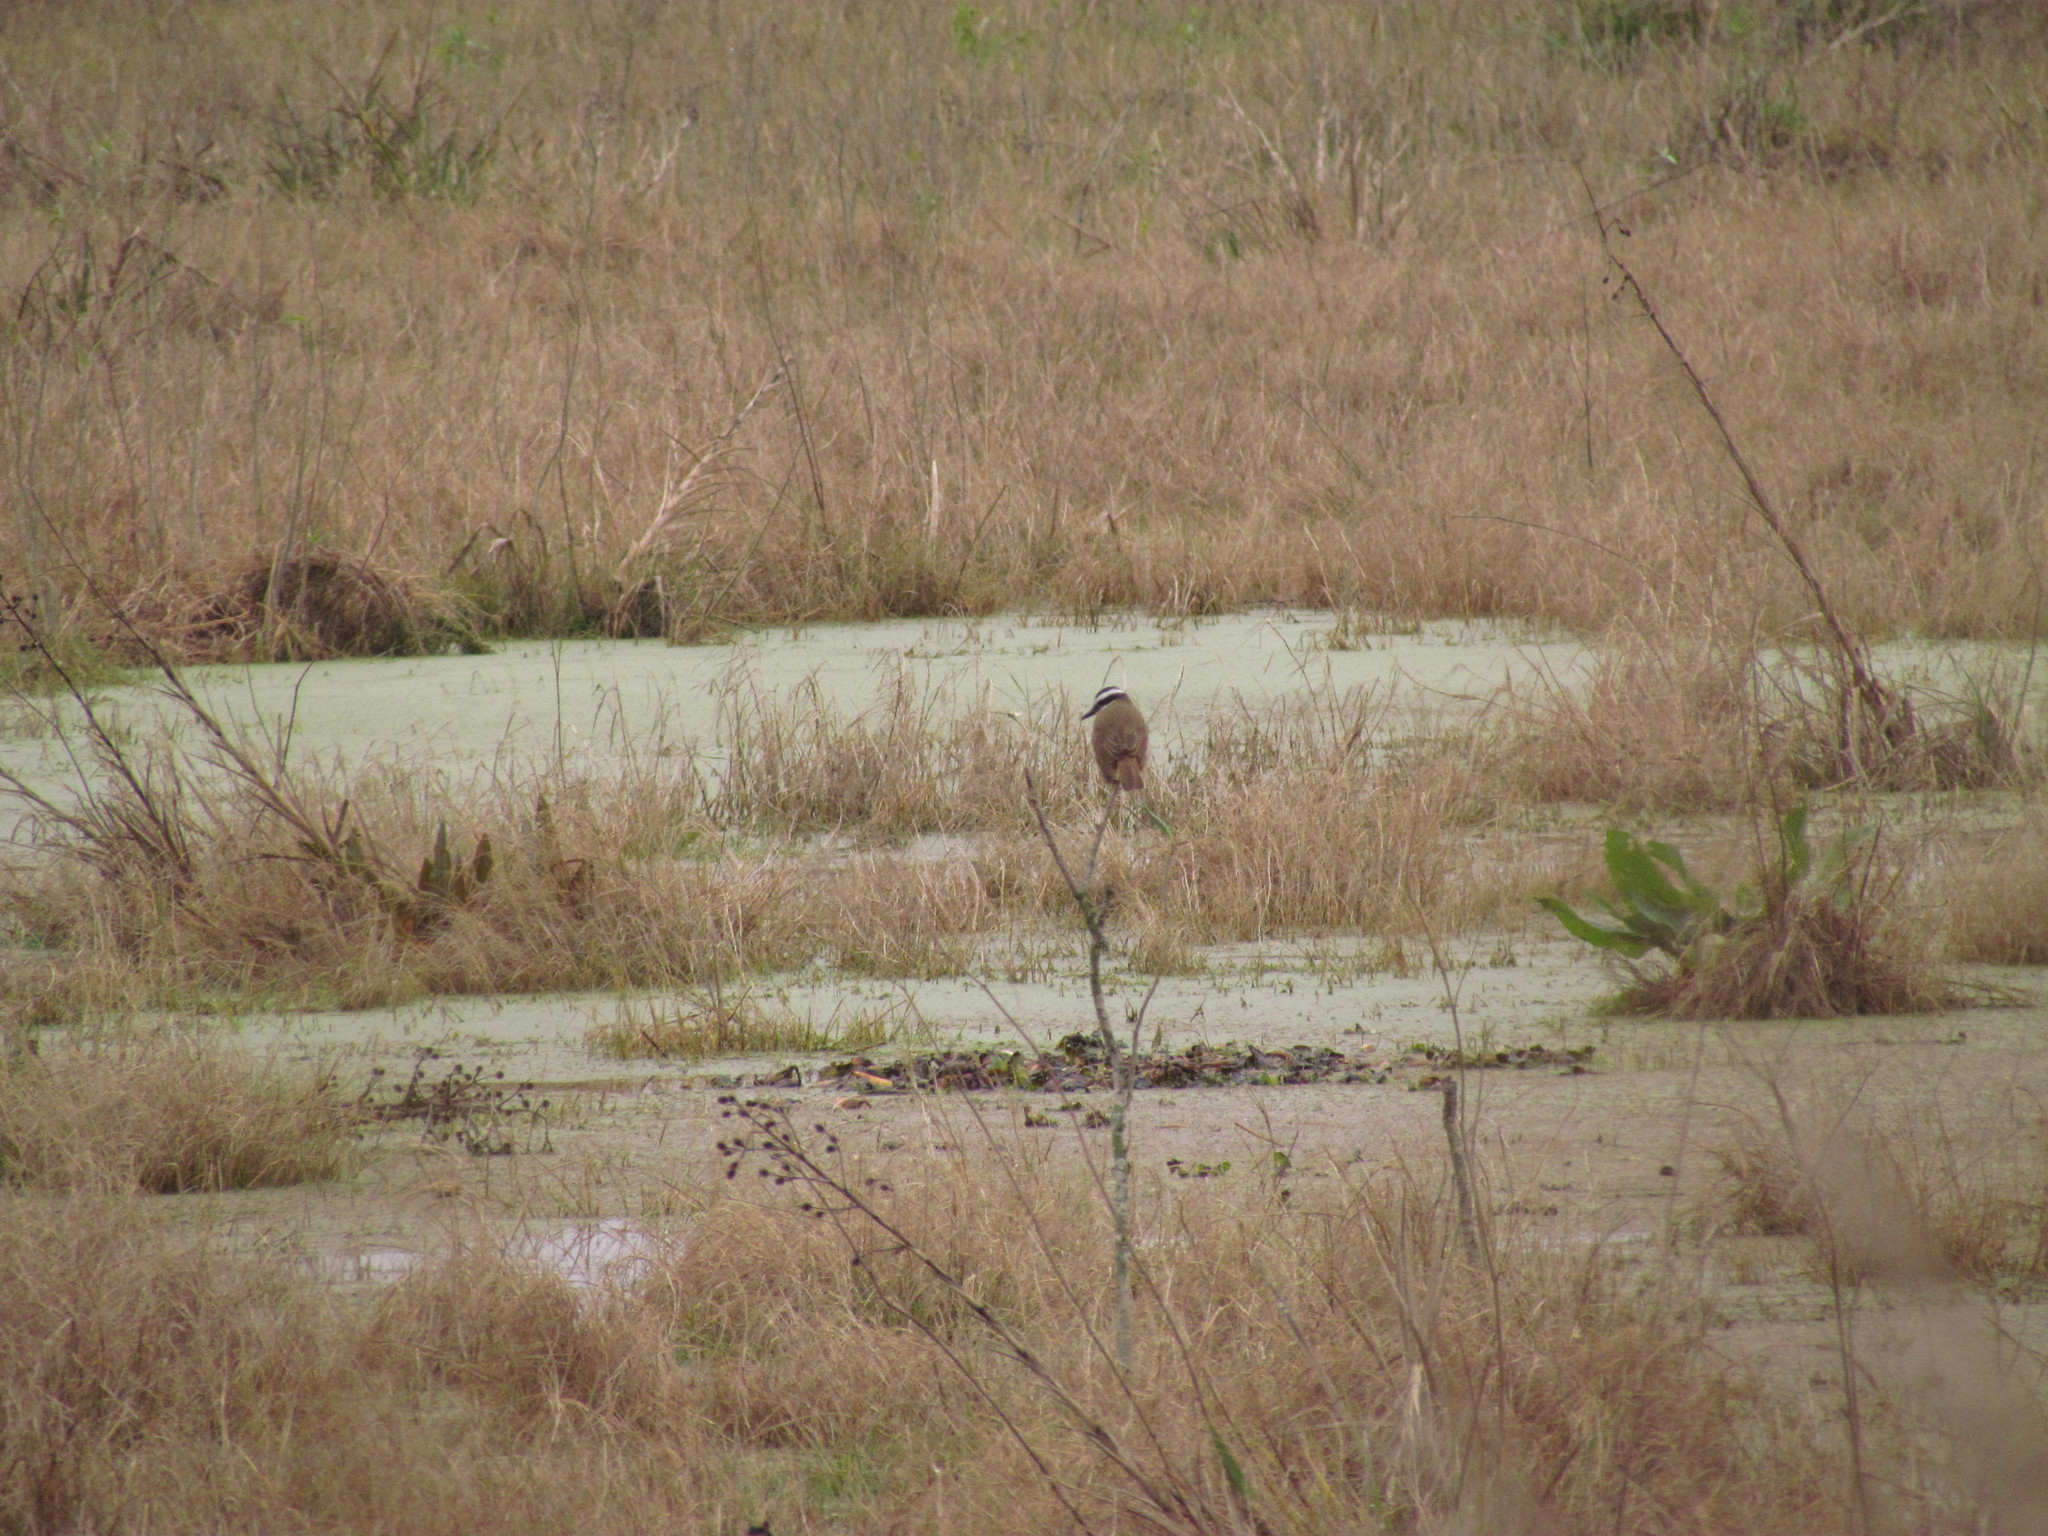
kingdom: Animalia
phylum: Chordata
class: Aves
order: Passeriformes
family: Tyrannidae
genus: Pitangus
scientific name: Pitangus sulphuratus
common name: Great kiskadee
